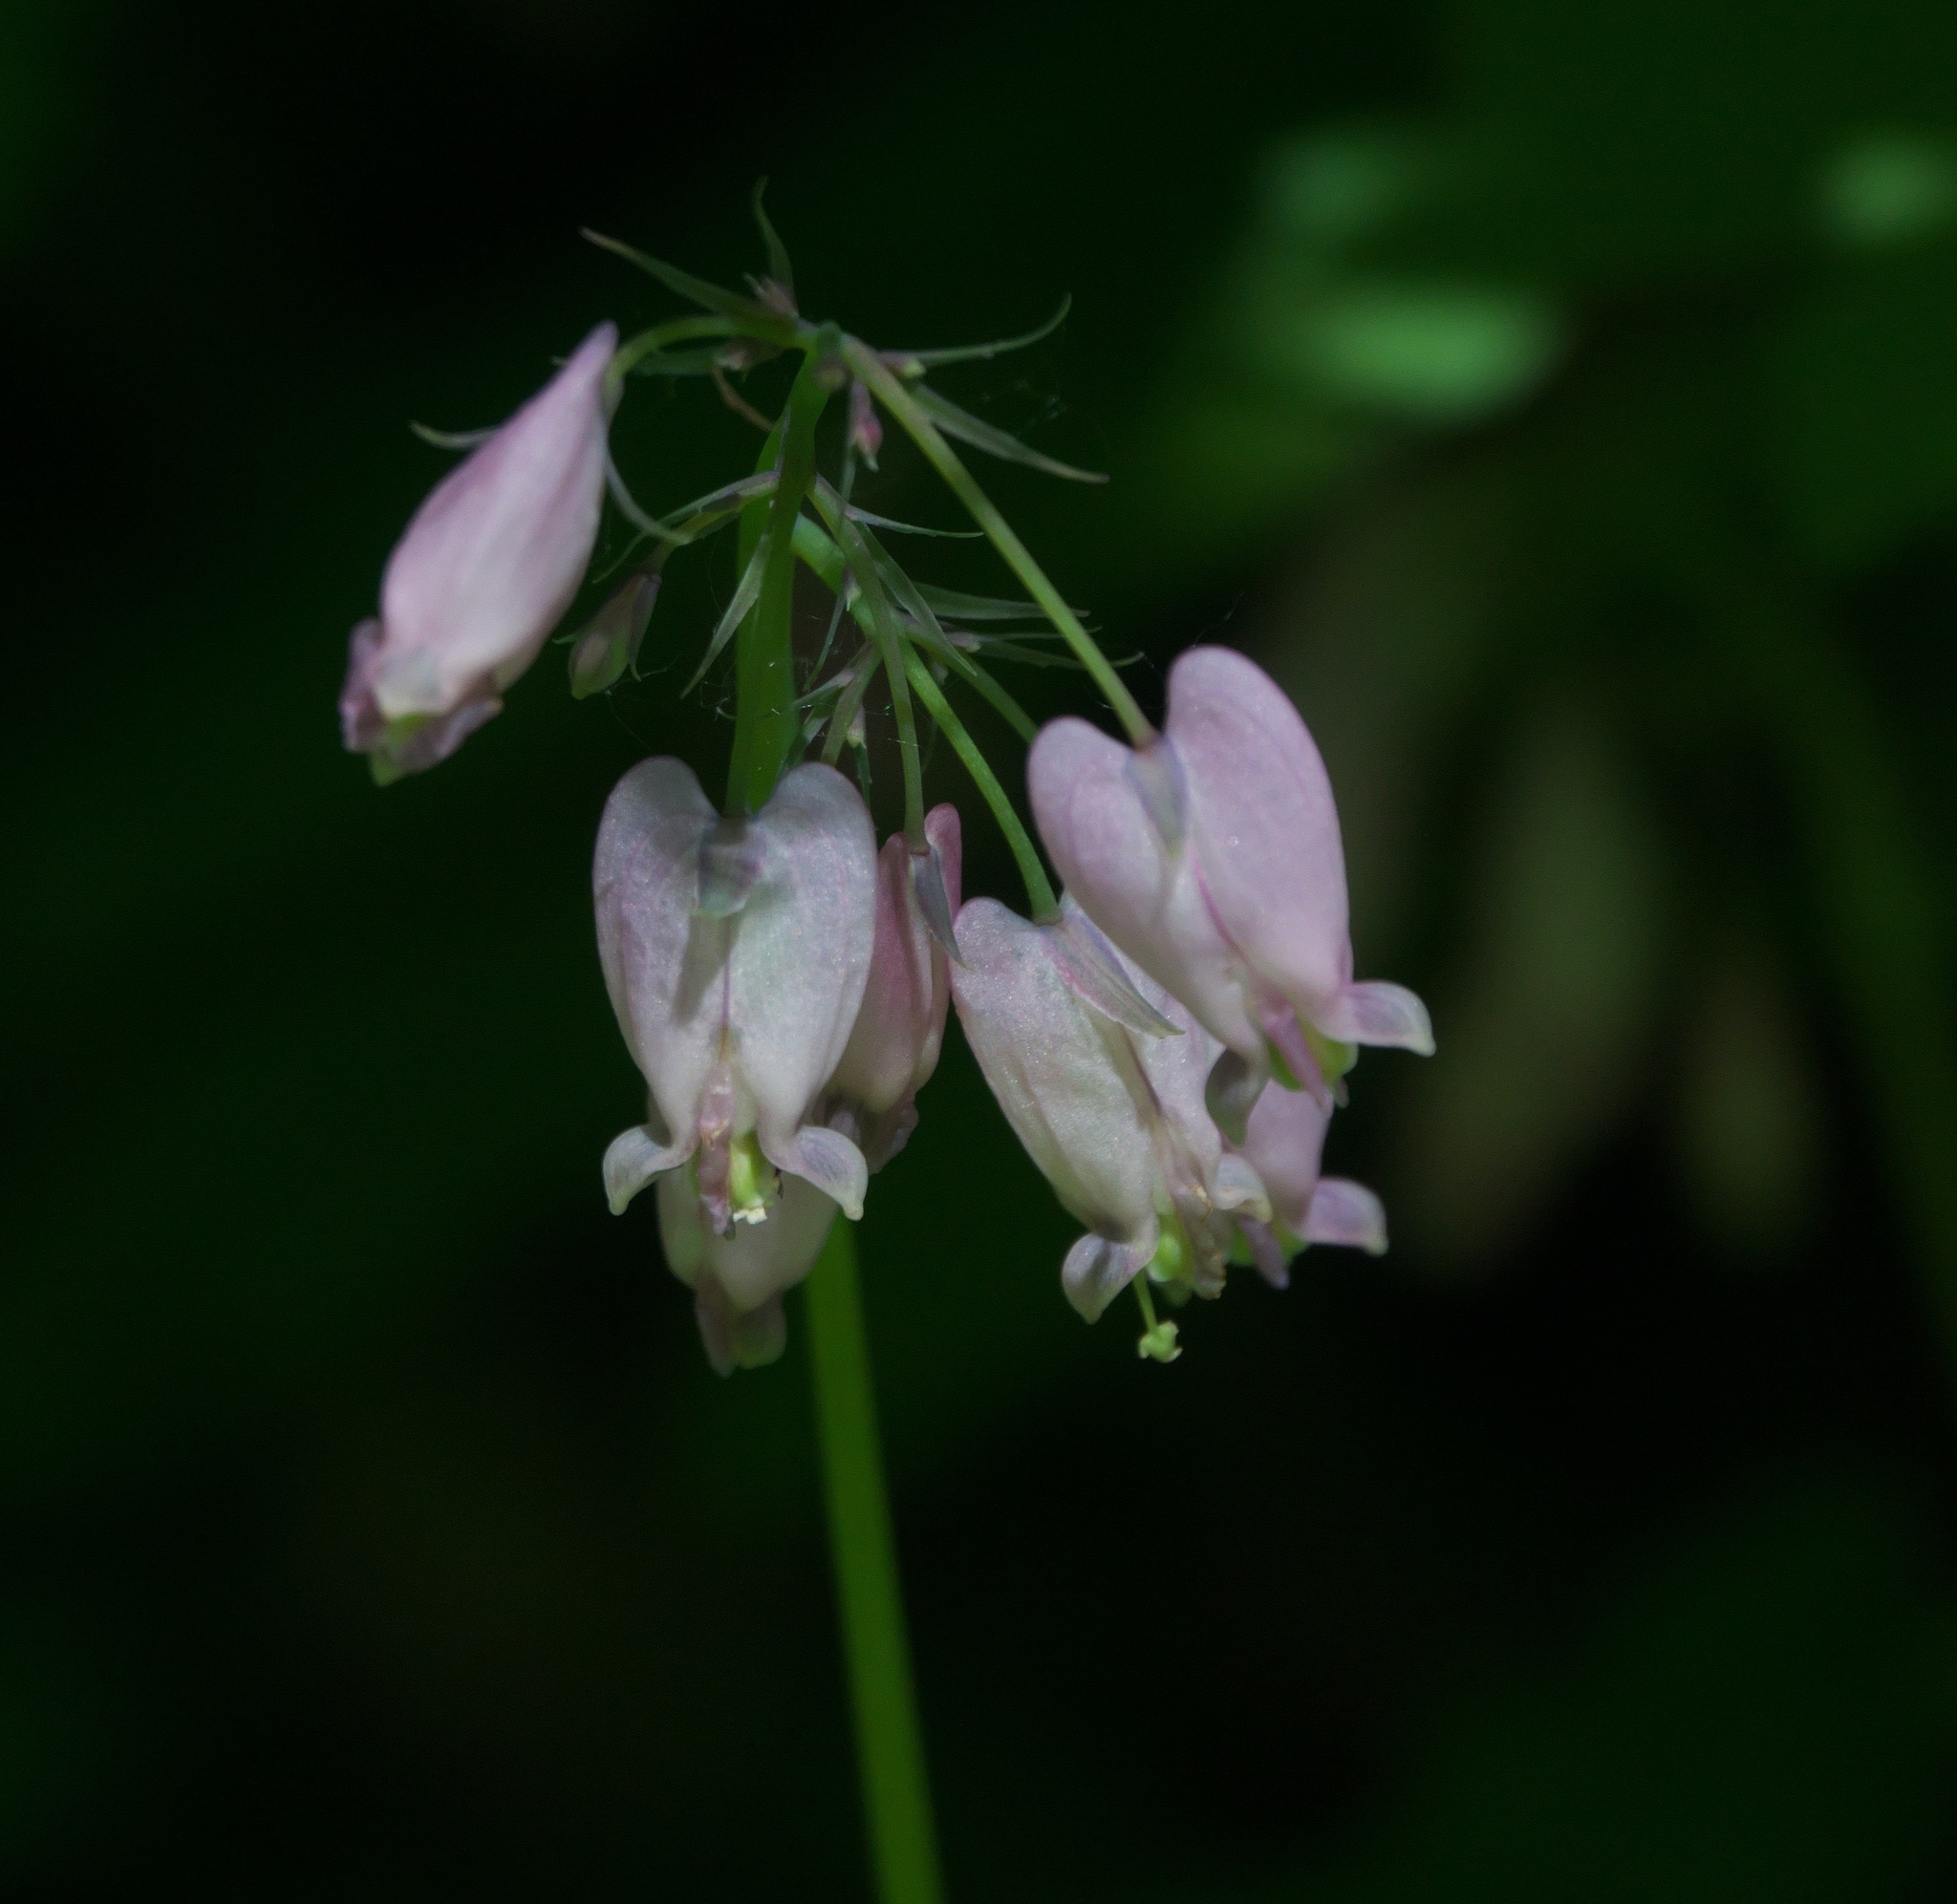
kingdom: Plantae
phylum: Tracheophyta
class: Magnoliopsida
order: Ranunculales
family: Papaveraceae
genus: Dicentra
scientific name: Dicentra formosa
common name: Bleeding-heart
